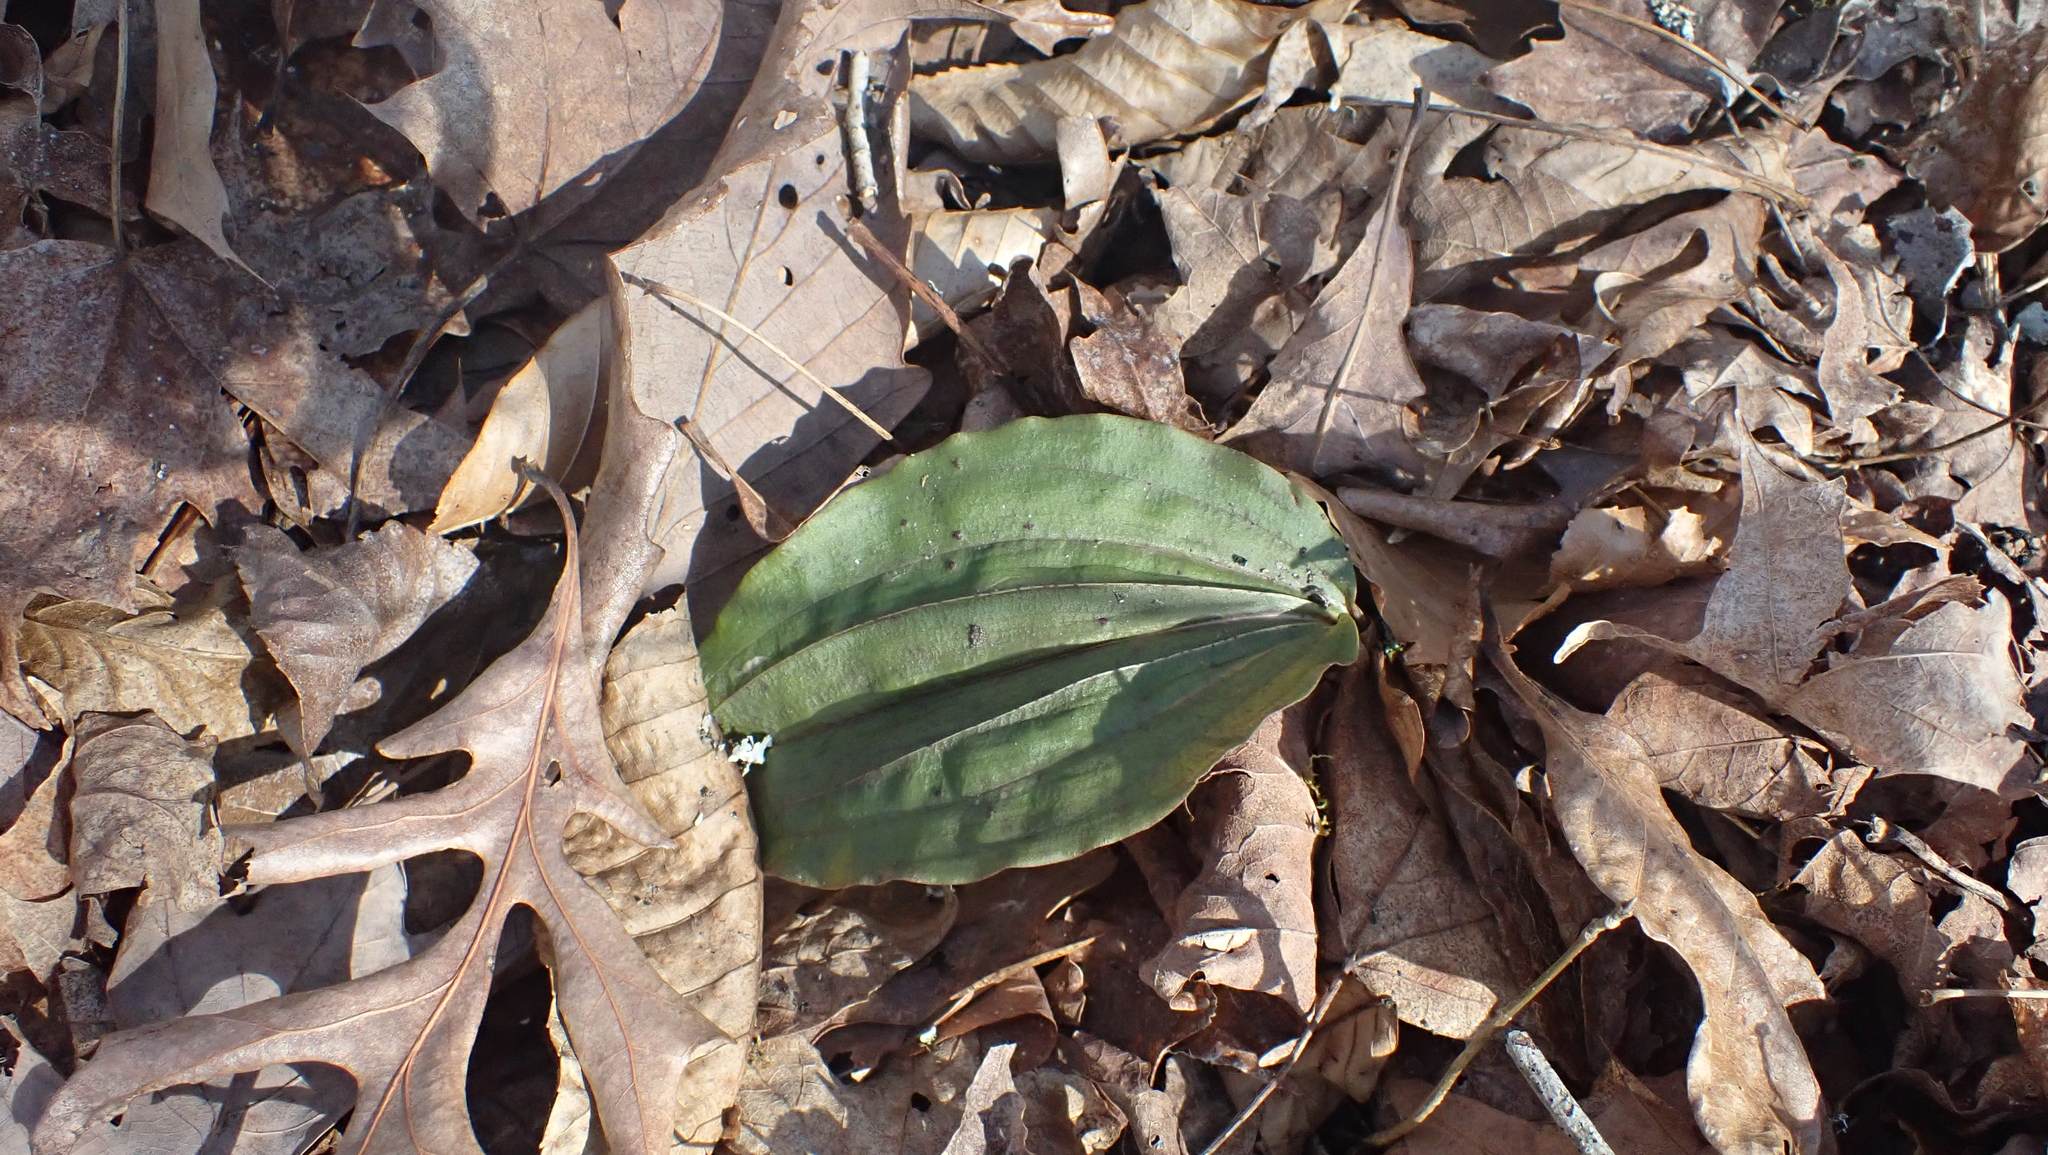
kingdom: Plantae
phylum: Tracheophyta
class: Liliopsida
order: Asparagales
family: Orchidaceae
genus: Tipularia
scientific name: Tipularia discolor
